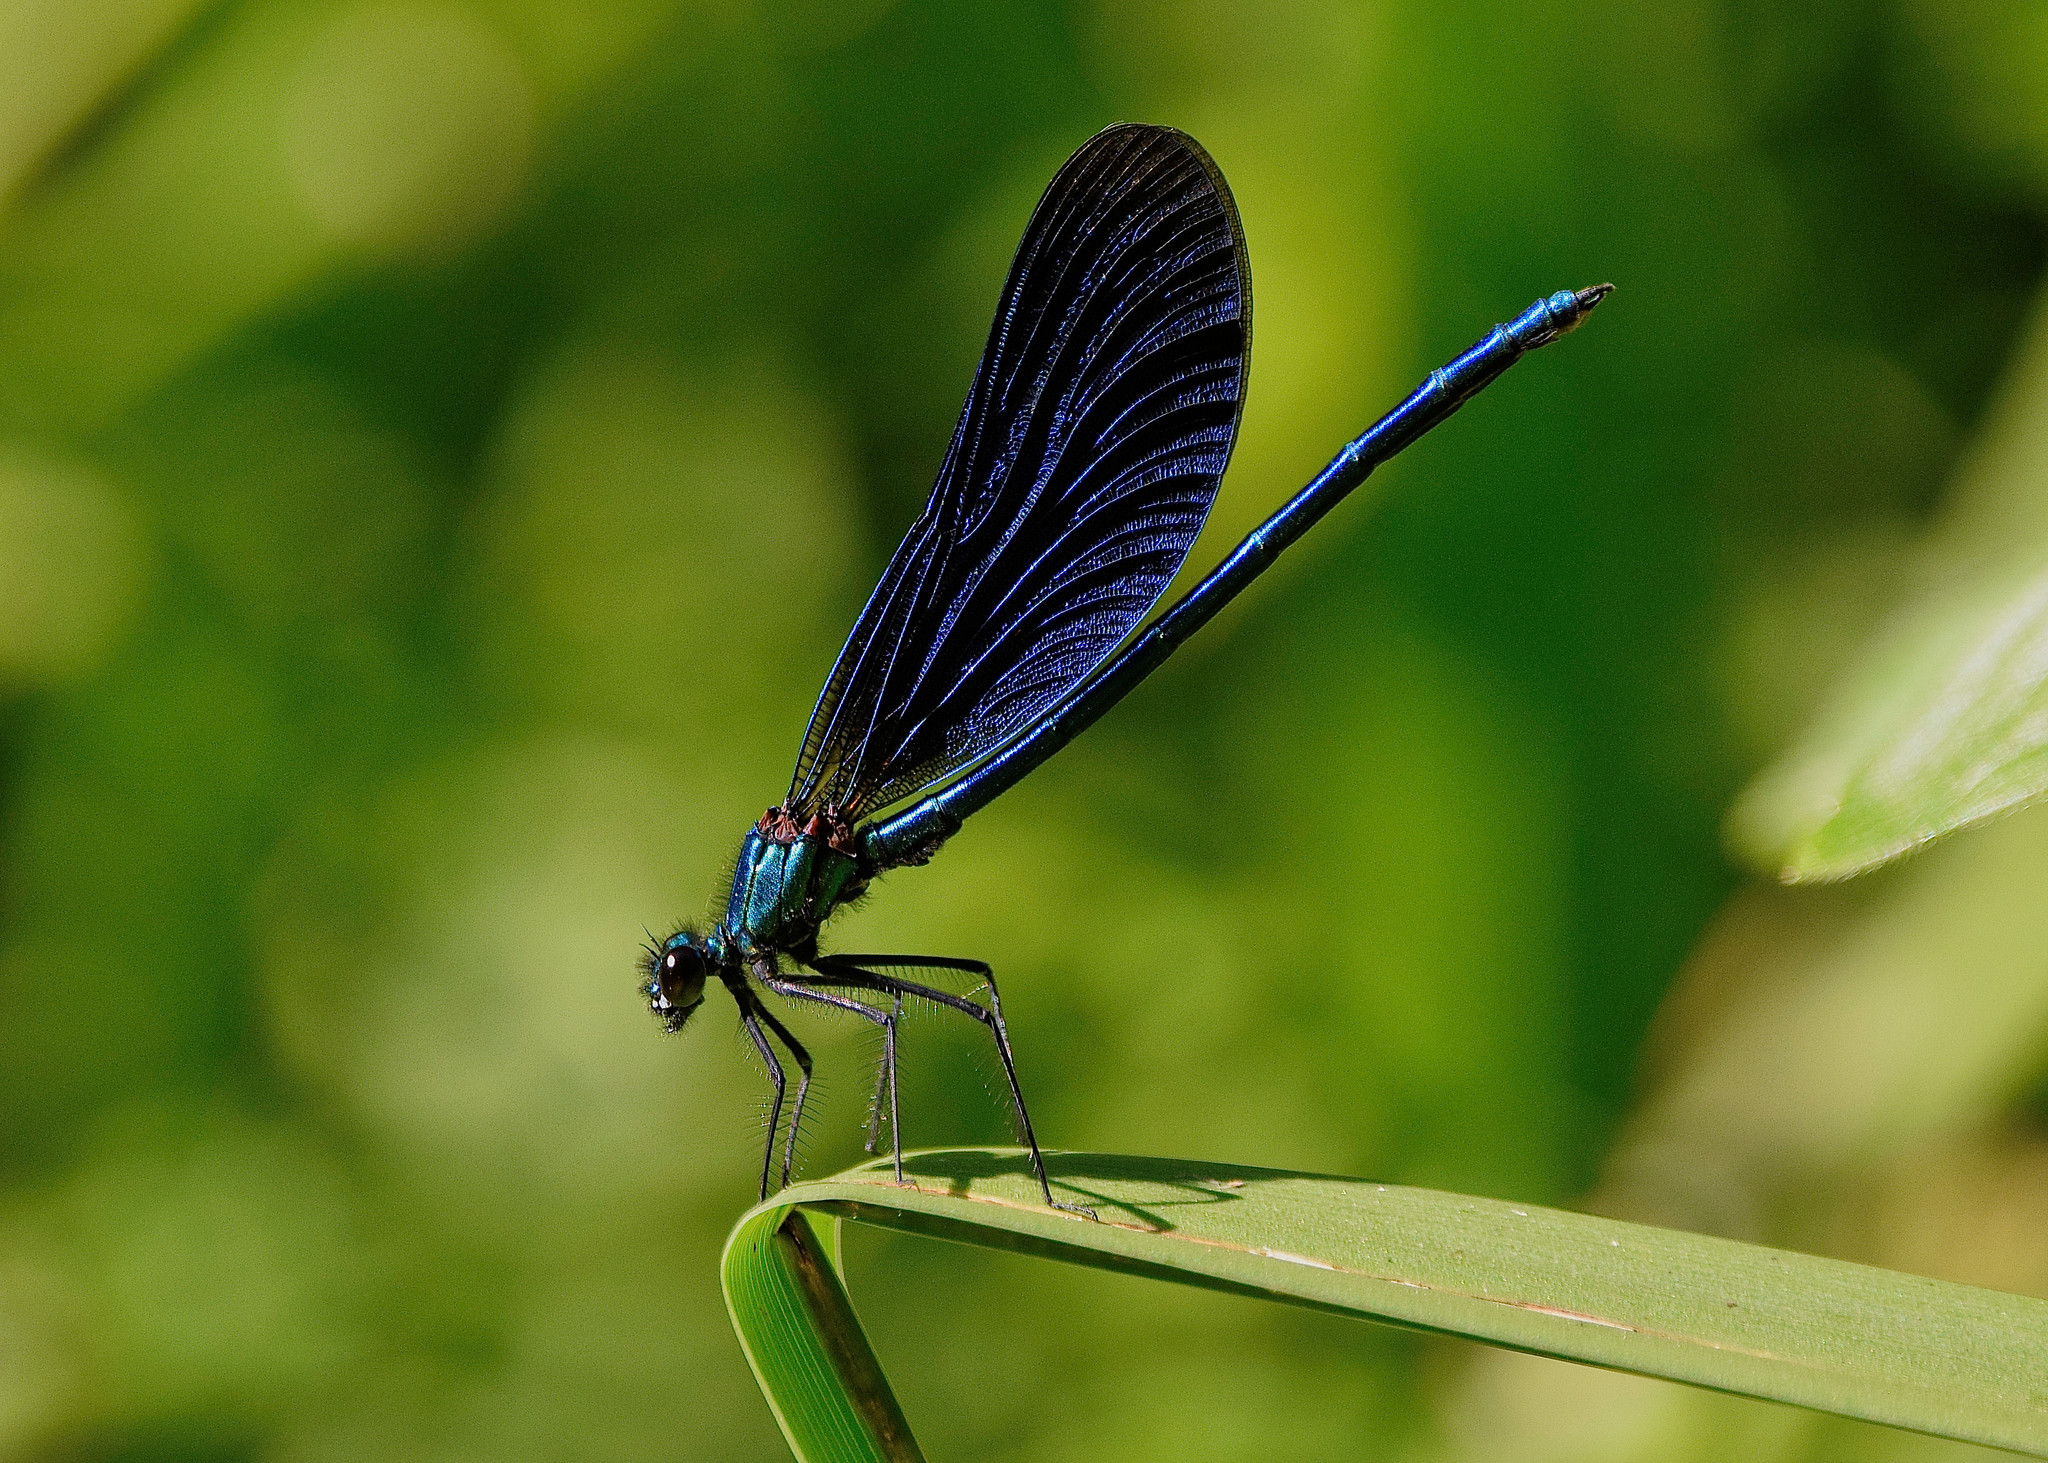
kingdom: Animalia
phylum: Arthropoda
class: Insecta
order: Odonata
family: Calopterygidae
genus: Calopteryx
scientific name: Calopteryx virgo
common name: Beautiful demoiselle
